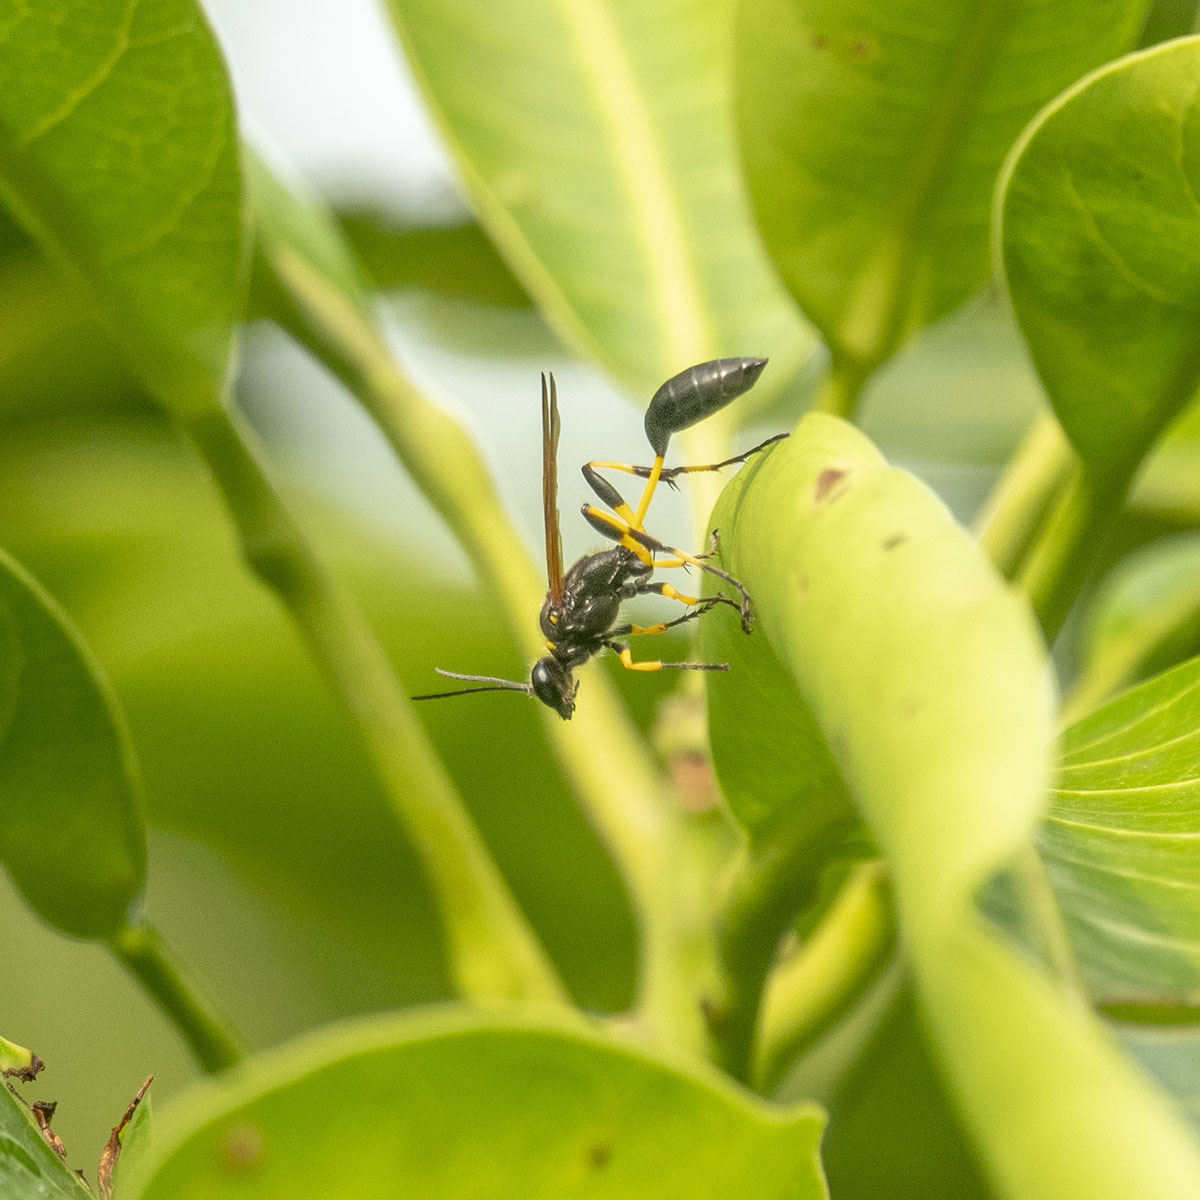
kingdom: Animalia
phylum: Arthropoda
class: Insecta
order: Hymenoptera
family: Sphecidae
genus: Sceliphron
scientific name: Sceliphron madraspatanum
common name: Mud dauber
